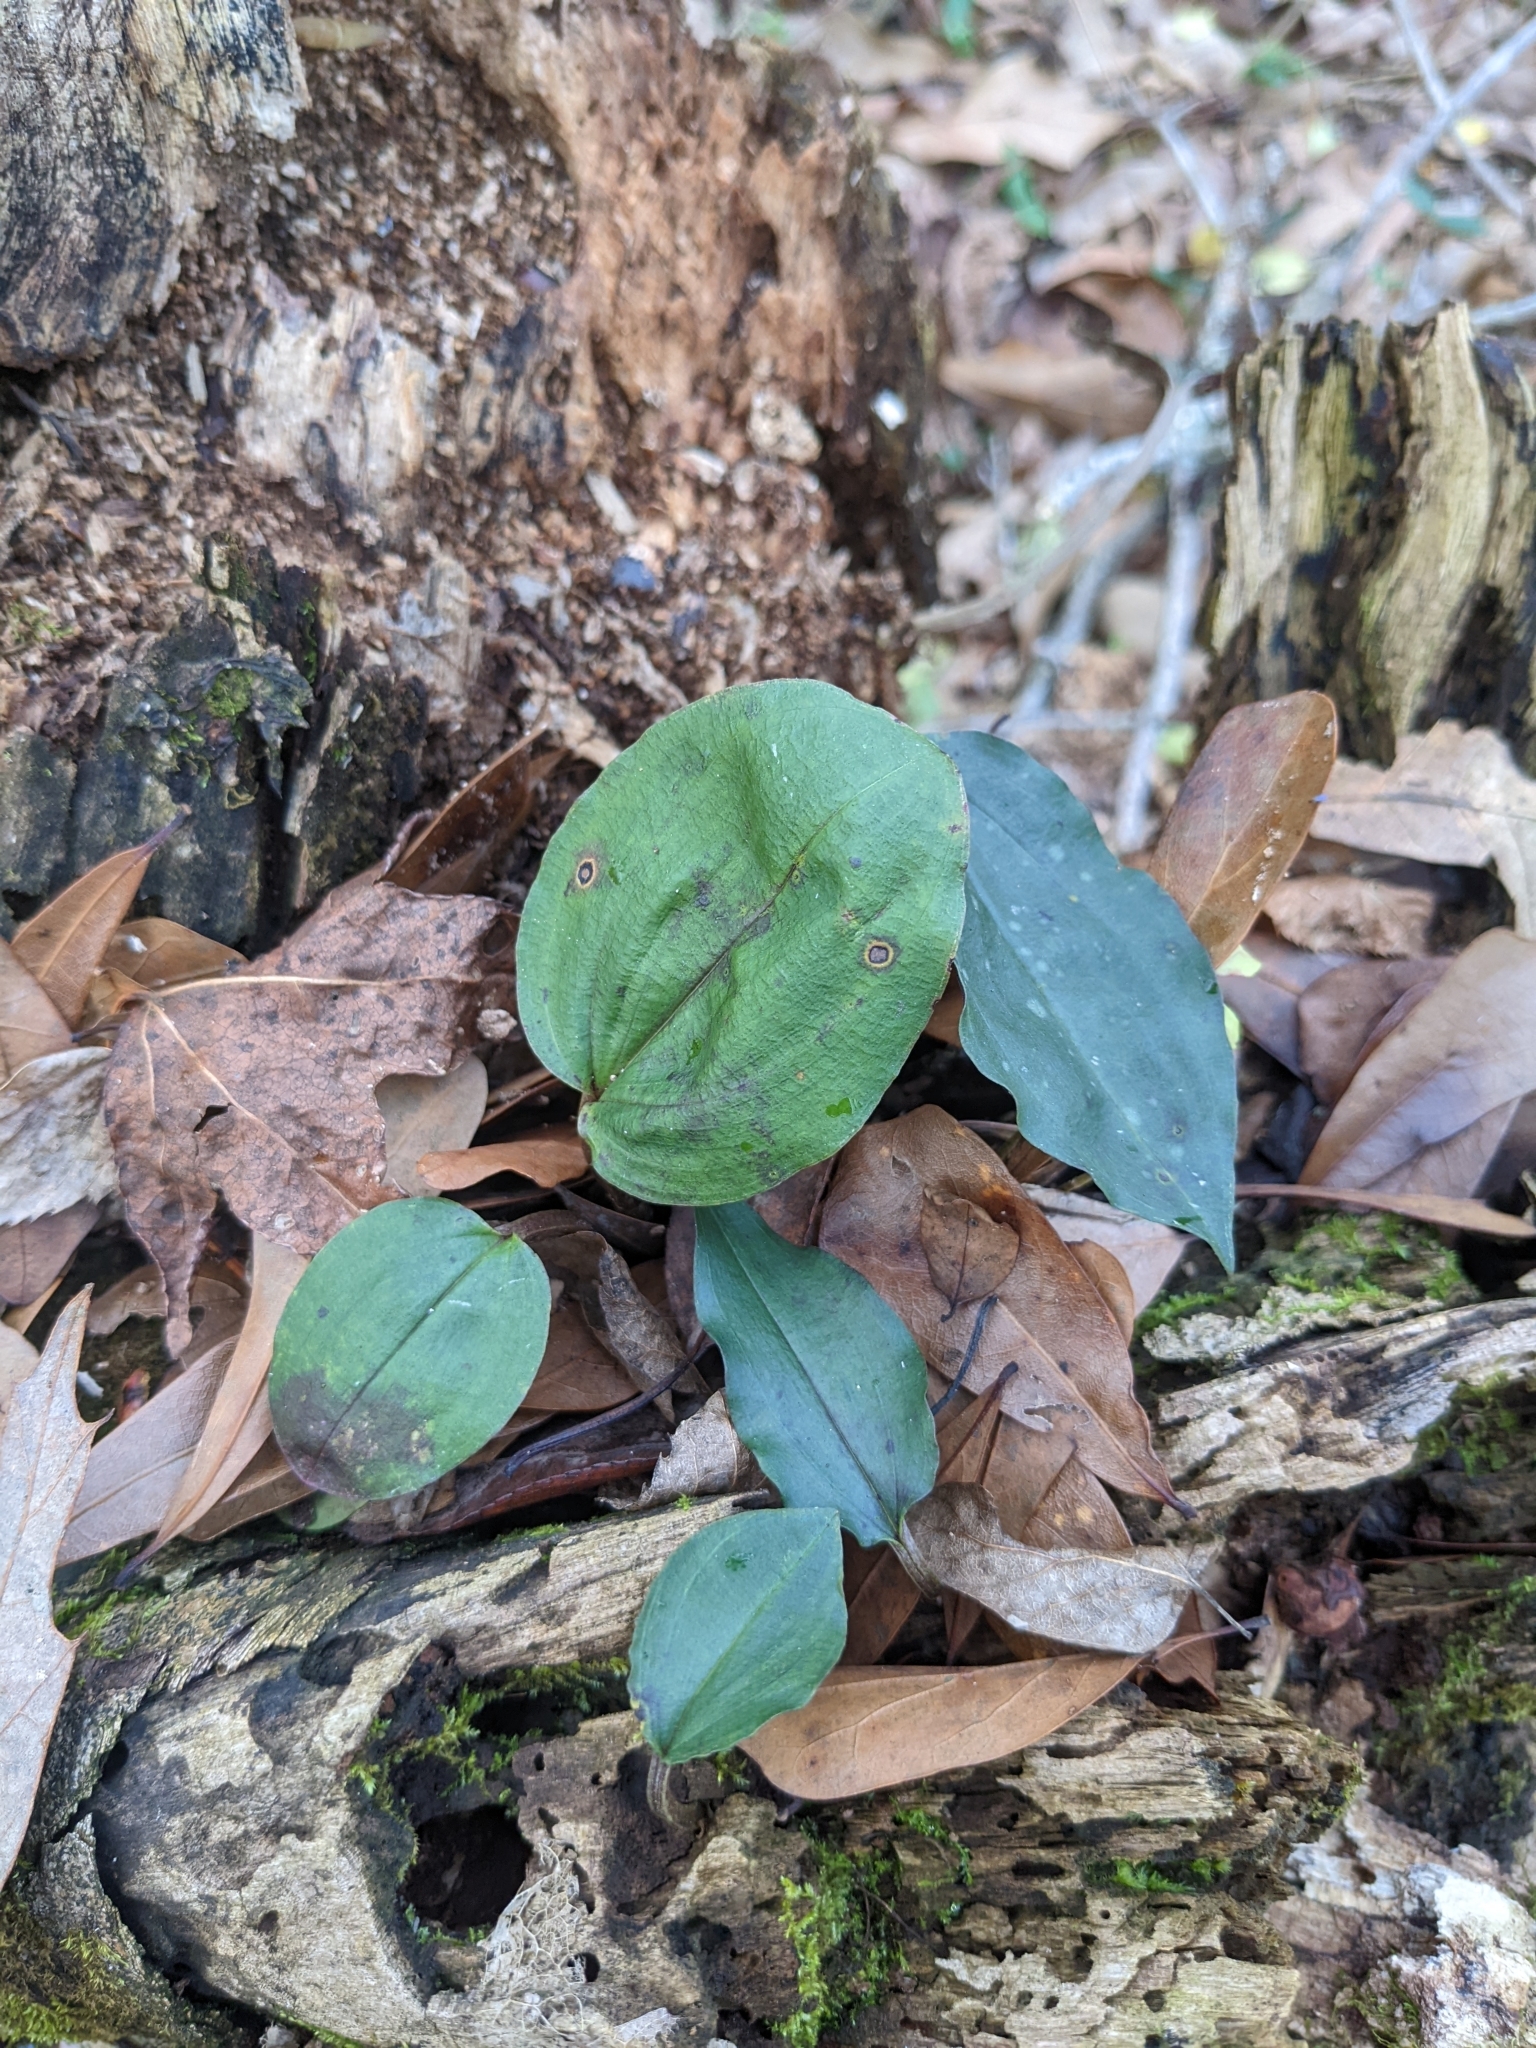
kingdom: Plantae
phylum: Tracheophyta
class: Liliopsida
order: Asparagales
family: Orchidaceae
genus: Tipularia
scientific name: Tipularia discolor
